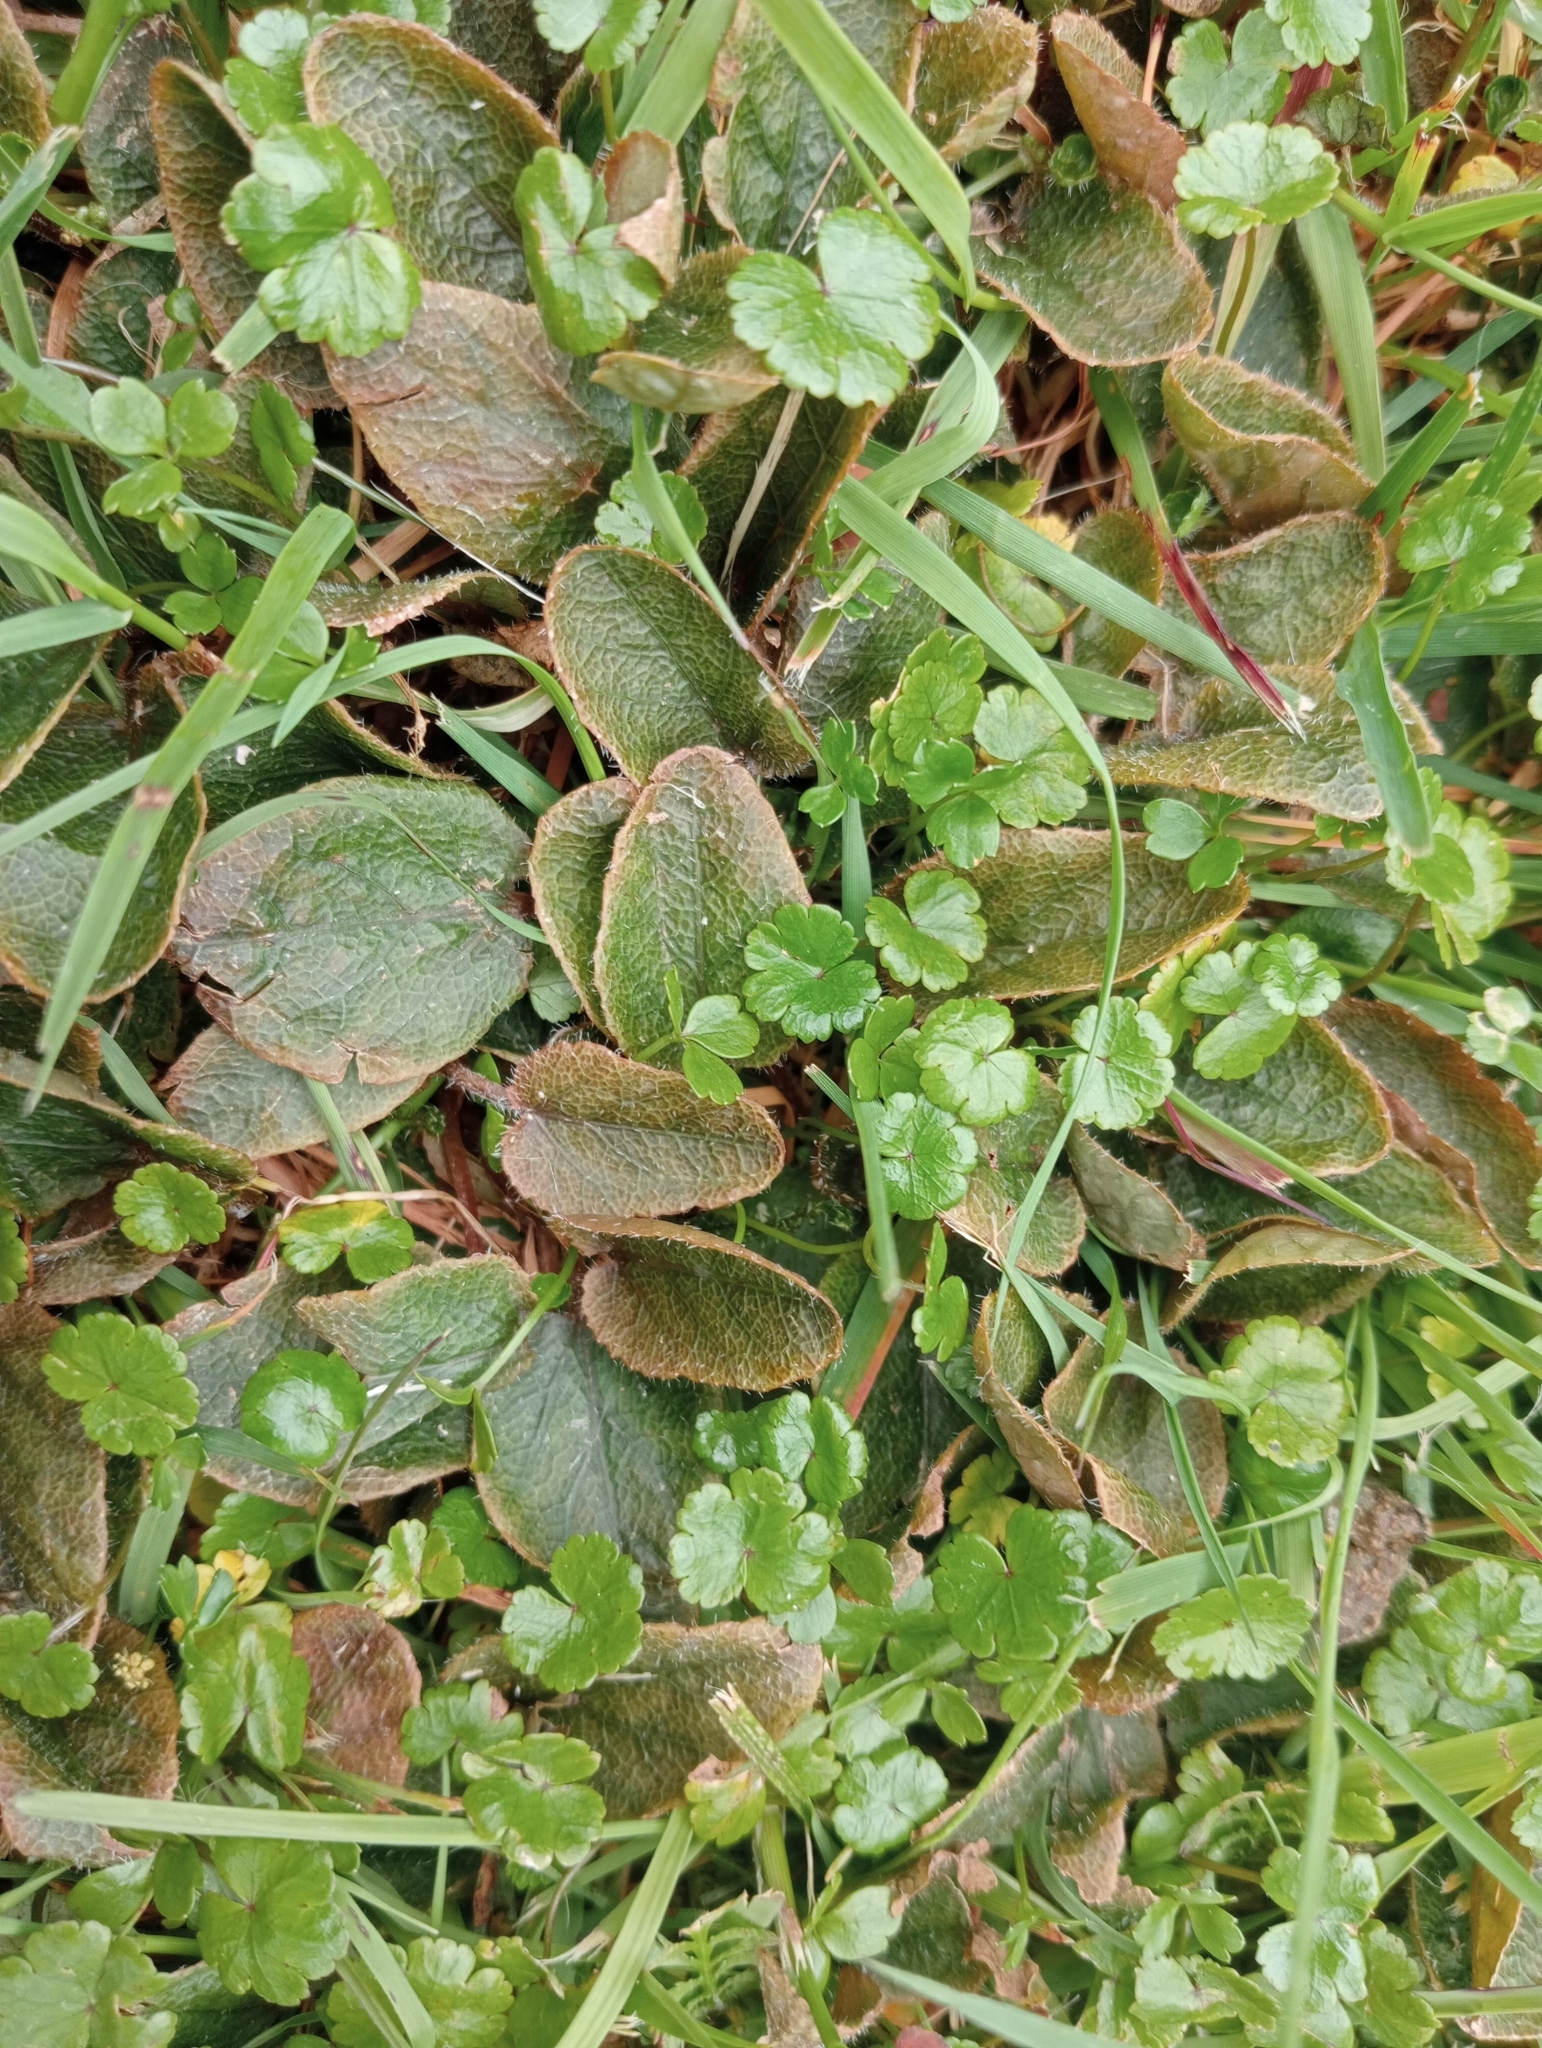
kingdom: Plantae
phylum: Tracheophyta
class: Magnoliopsida
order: Gunnerales
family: Gunneraceae
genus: Gunnera
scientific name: Gunnera prorepens
